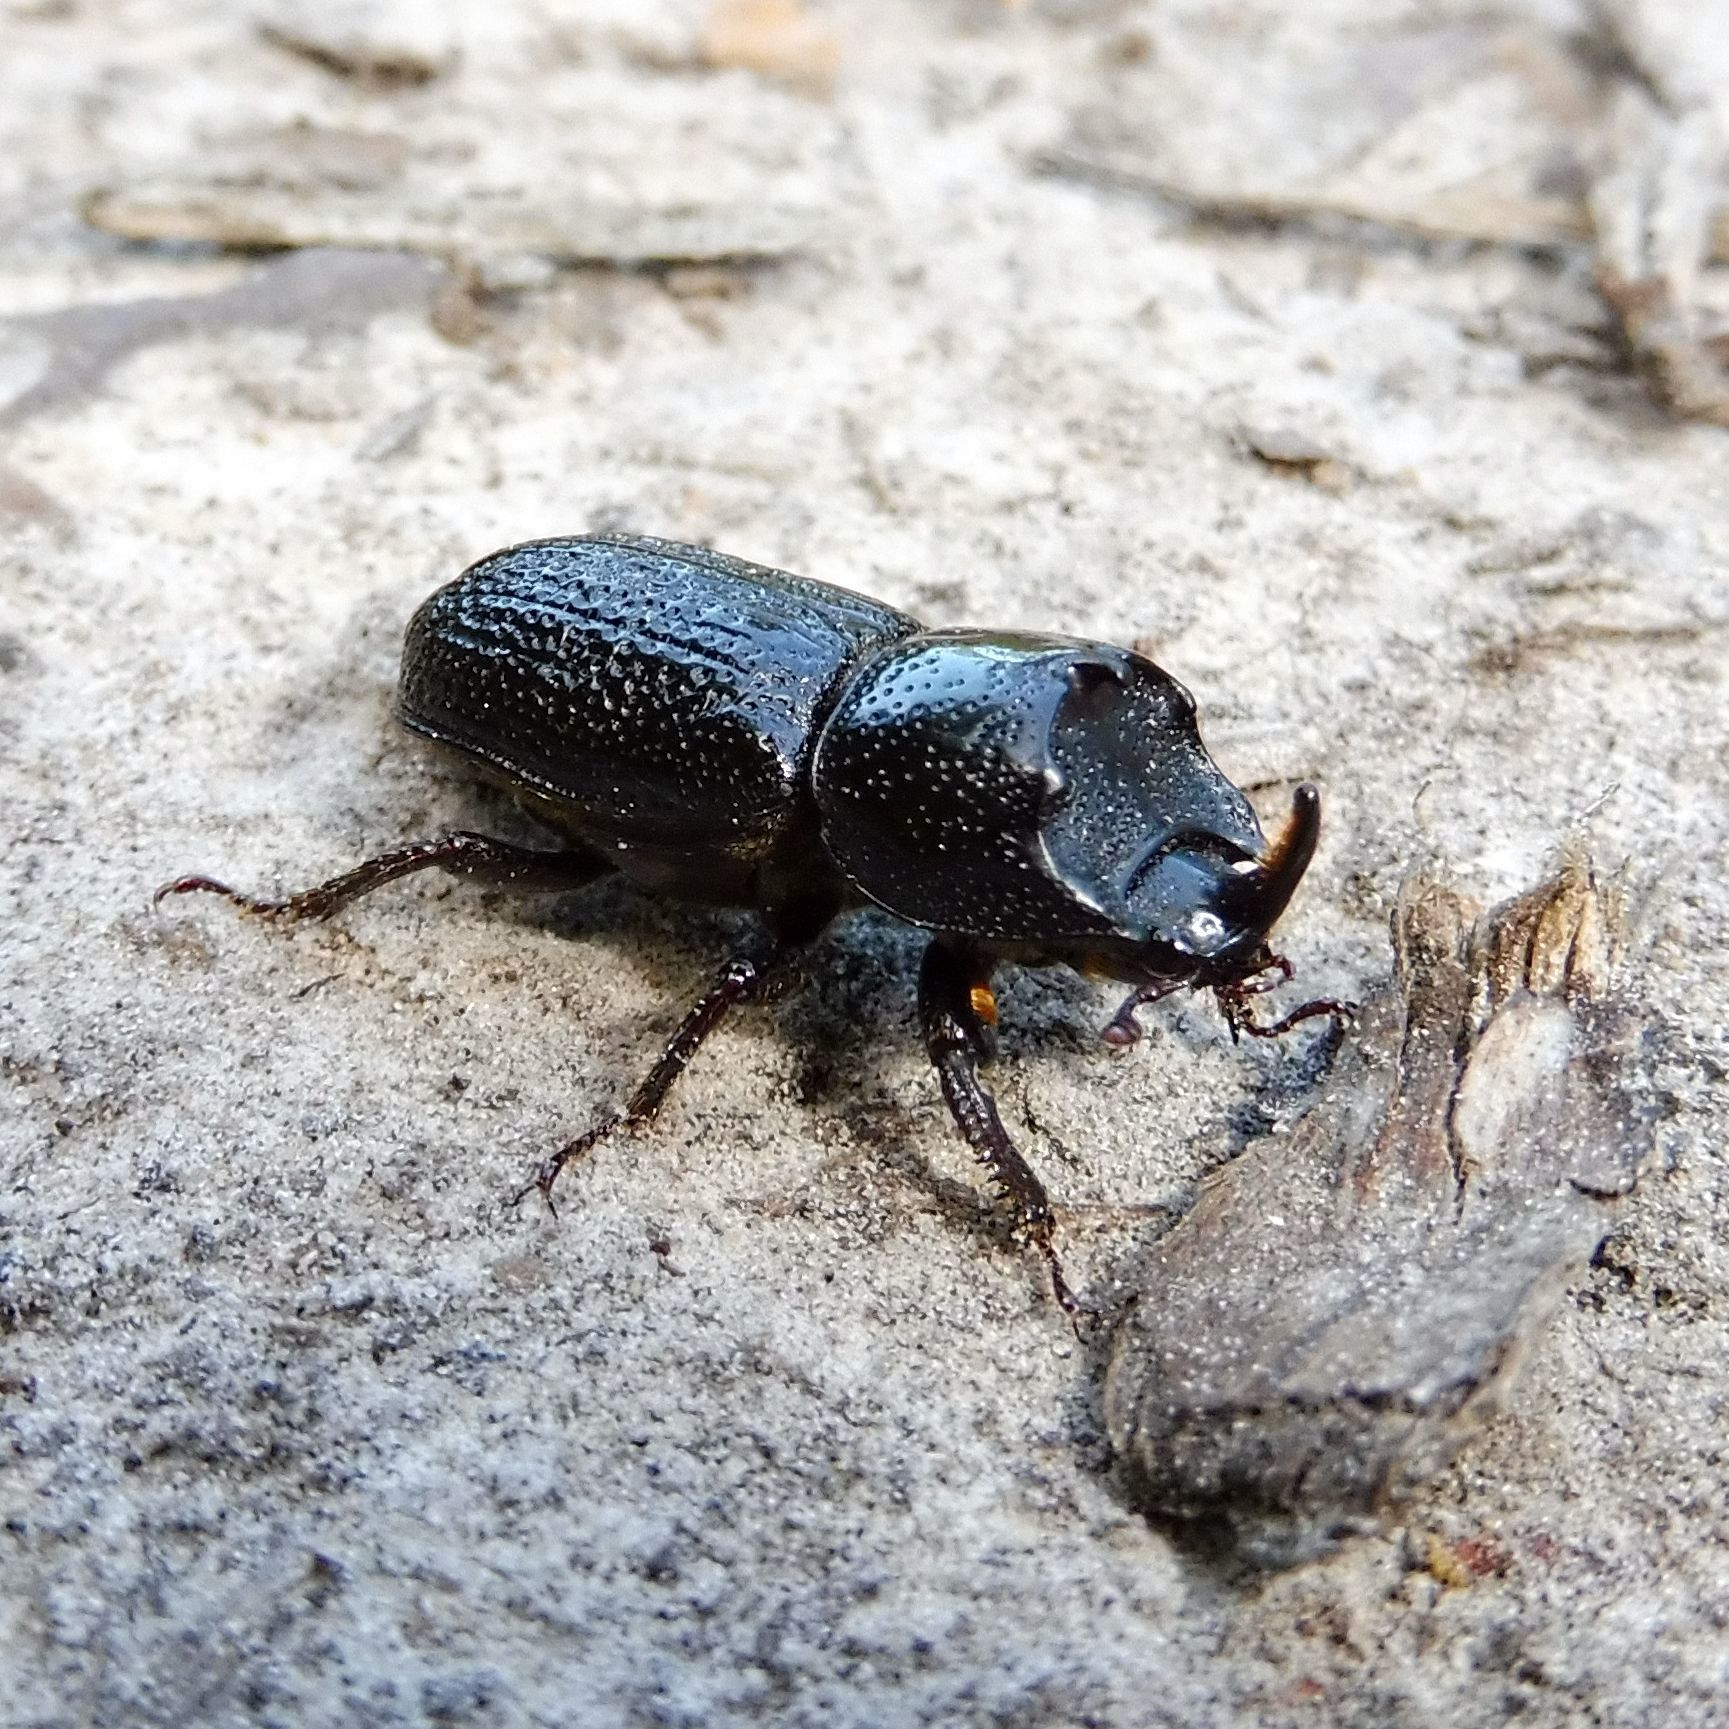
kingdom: Animalia
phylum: Arthropoda
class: Insecta
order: Coleoptera
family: Lucanidae
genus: Sinodendron
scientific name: Sinodendron cylindricum
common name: Rhinoceros beetle
